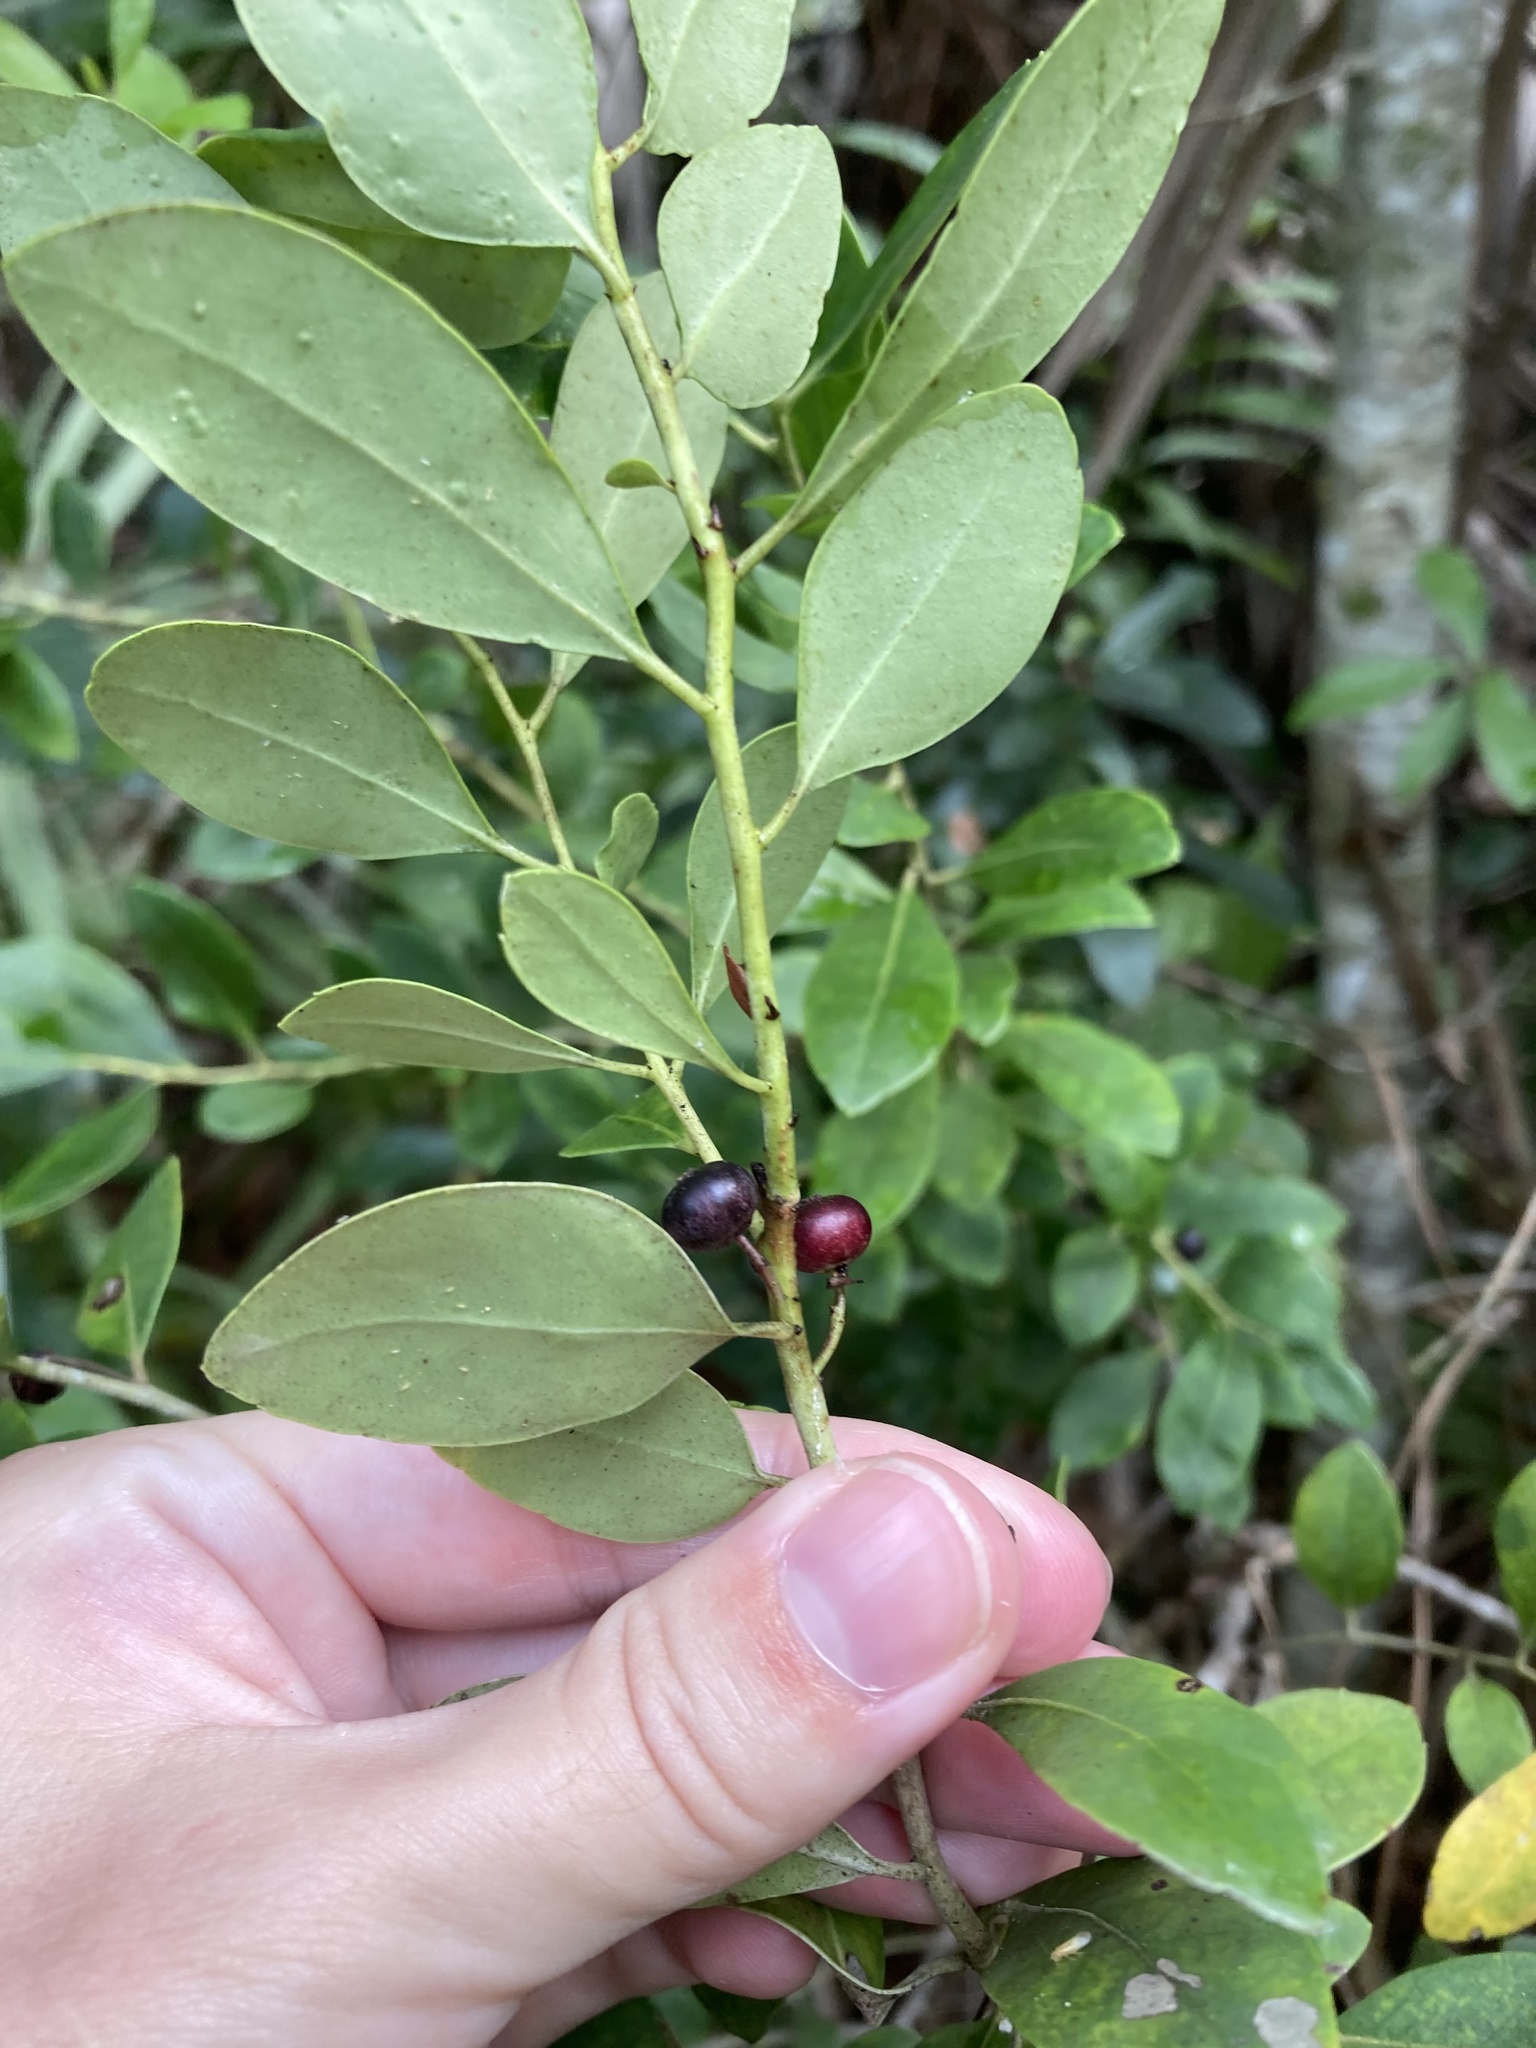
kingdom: Plantae
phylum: Tracheophyta
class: Magnoliopsida
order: Aquifoliales
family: Aquifoliaceae
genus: Ilex
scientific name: Ilex glabra
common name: Bitter gallberry
